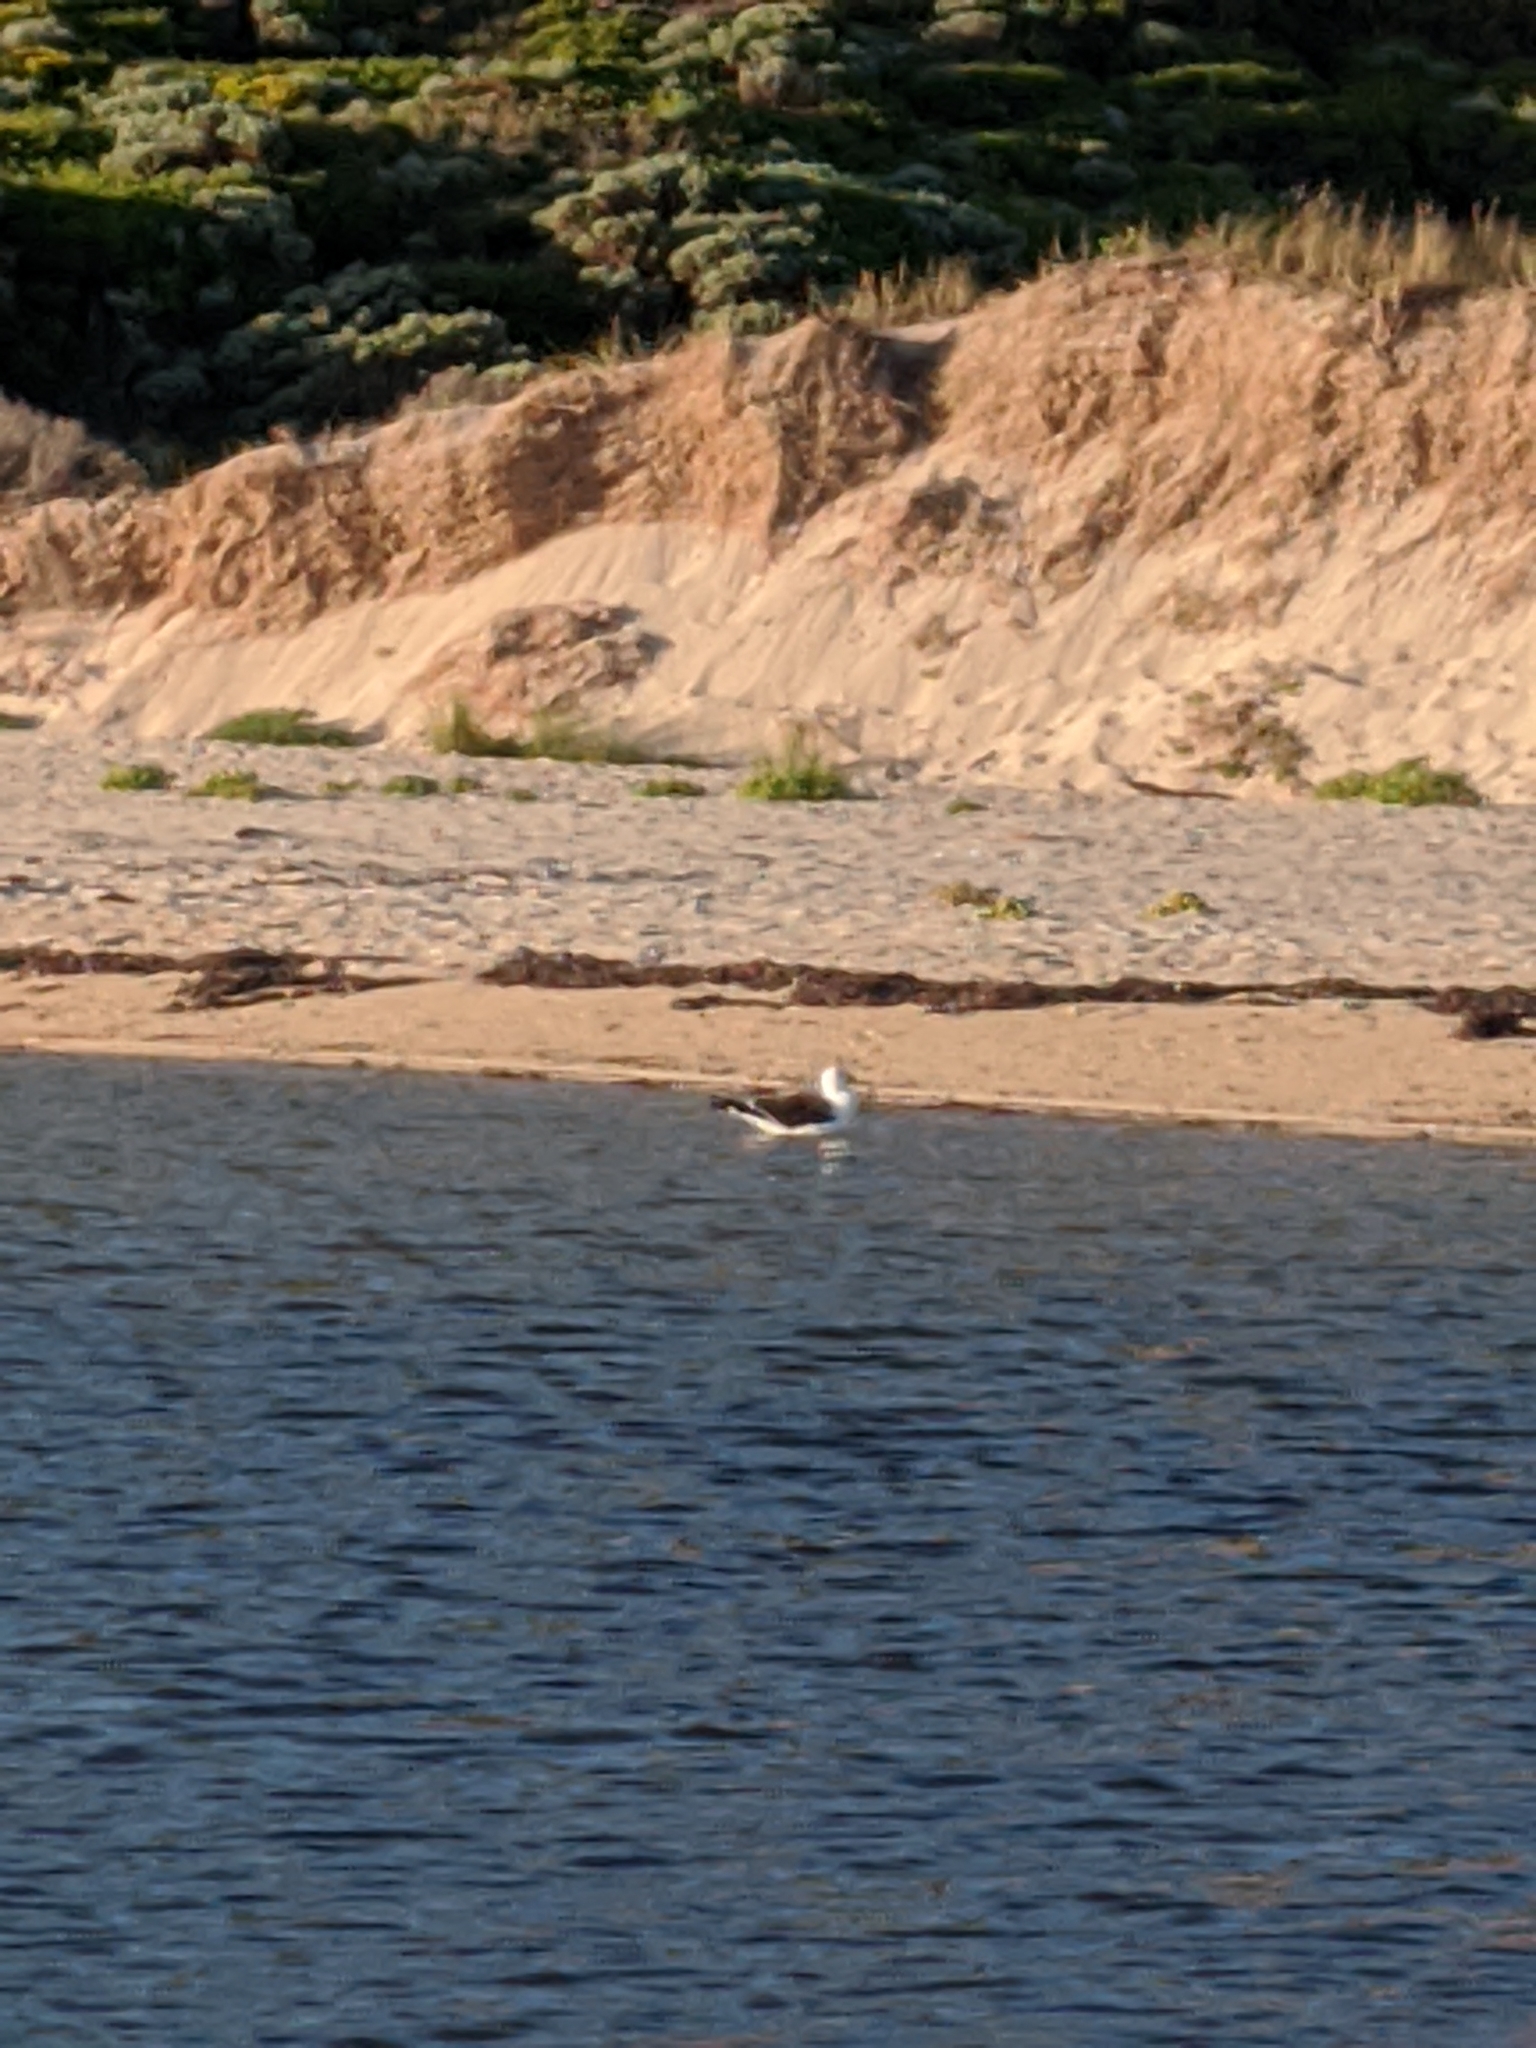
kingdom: Animalia
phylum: Chordata
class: Aves
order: Charadriiformes
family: Laridae
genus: Larus
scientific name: Larus pacificus
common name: Pacific gull
